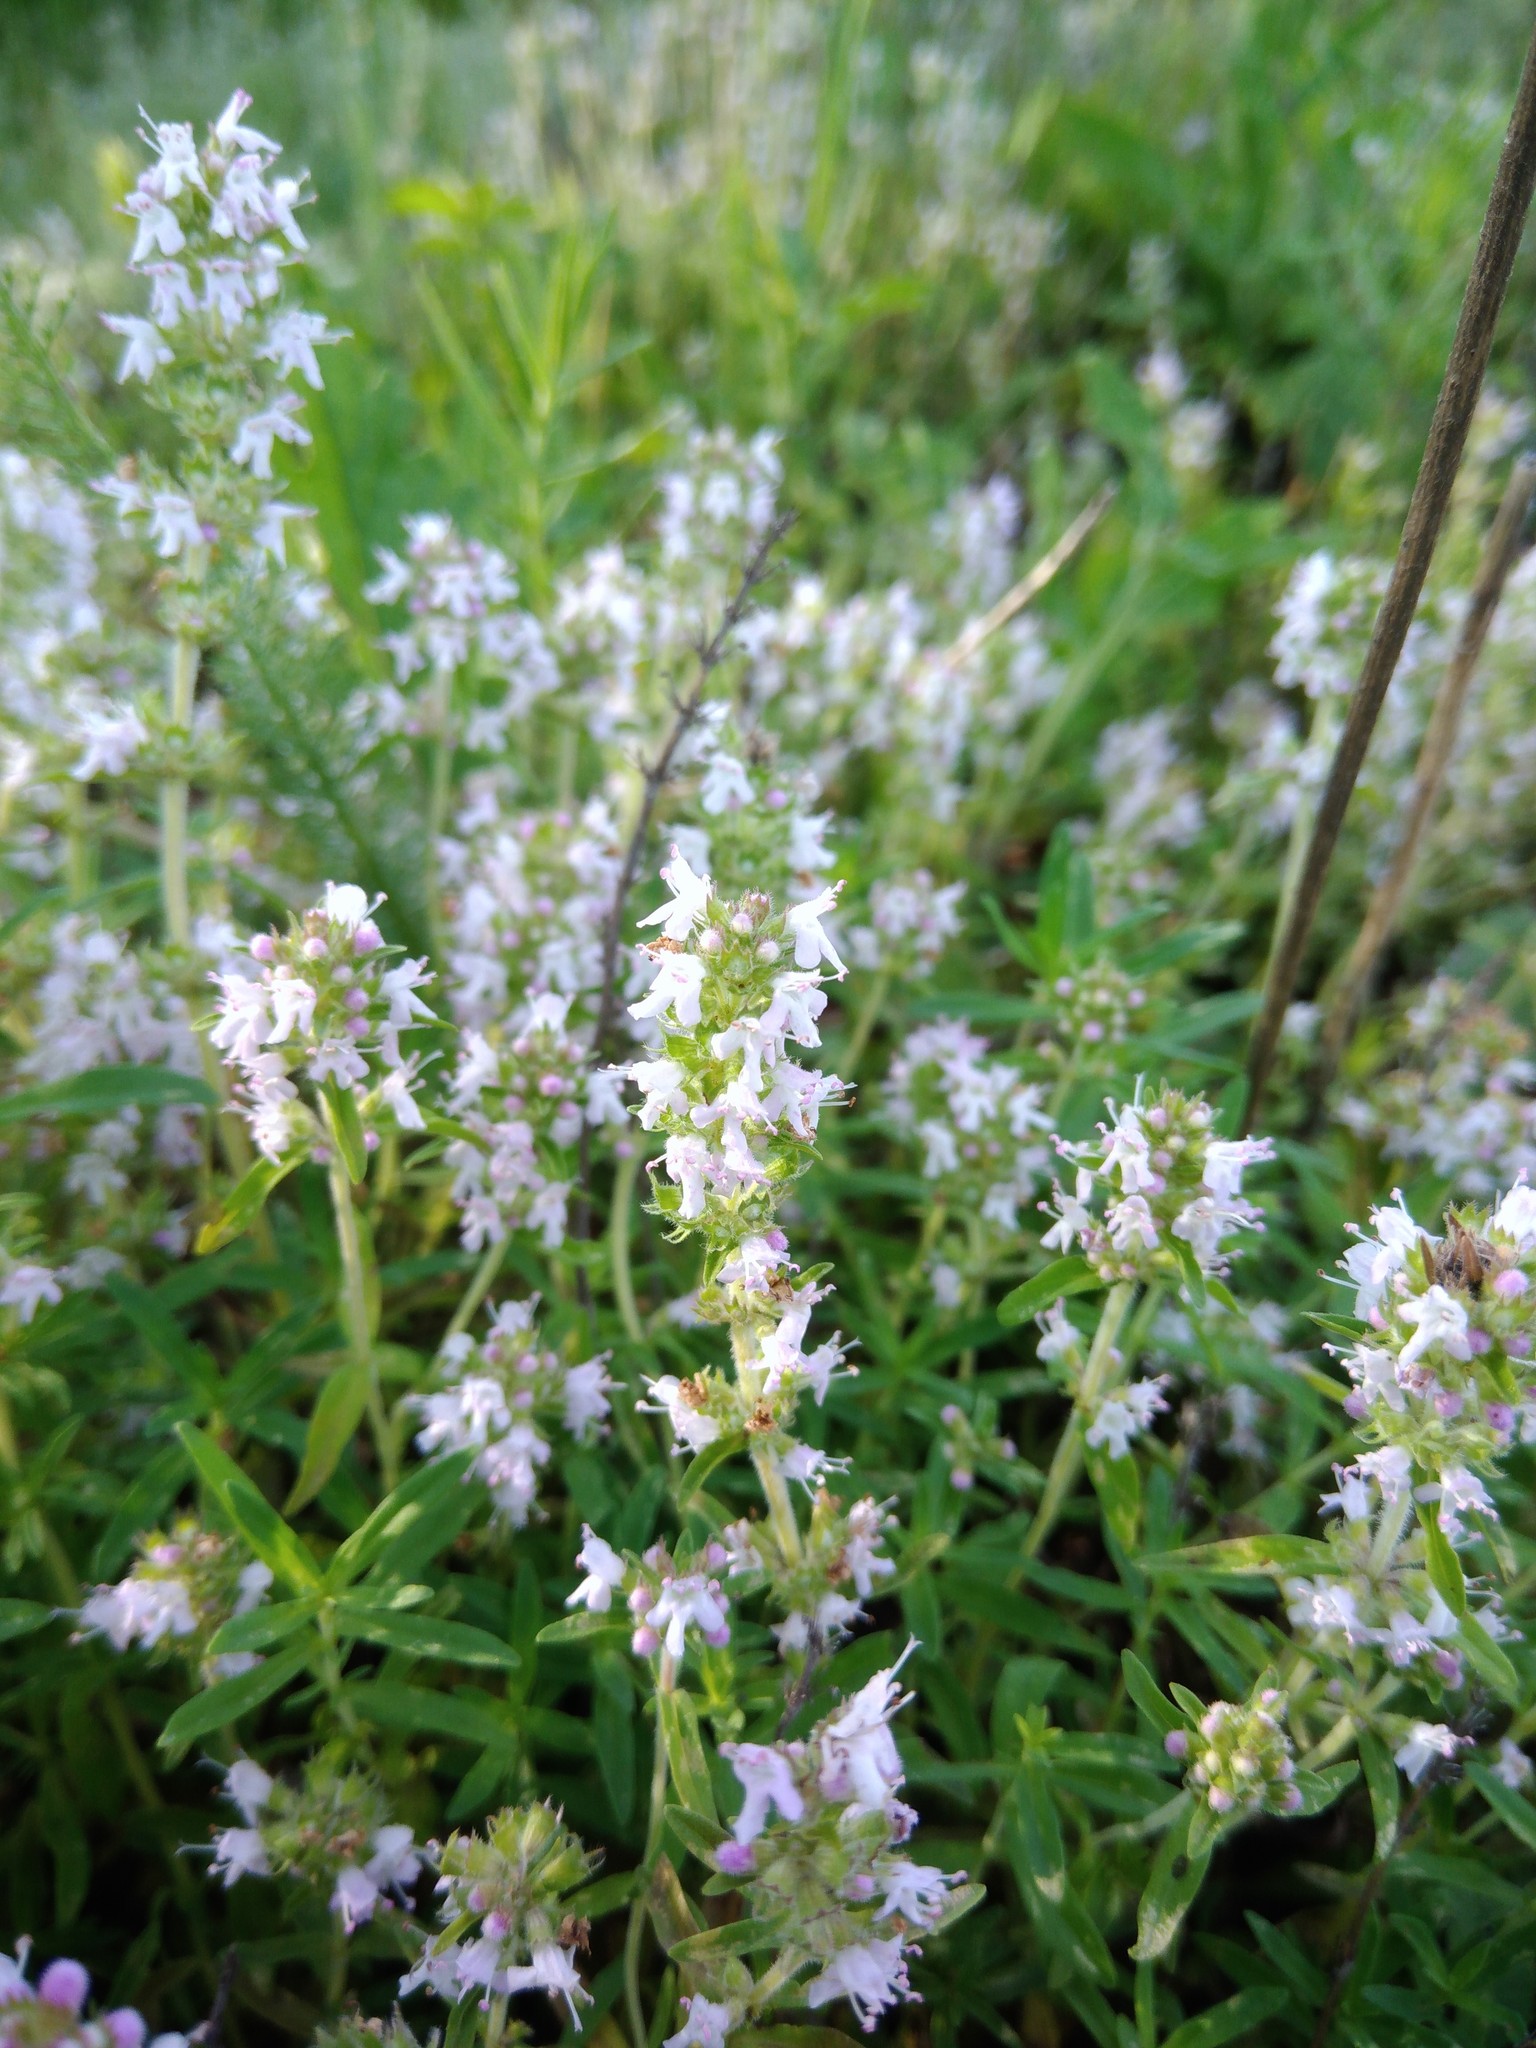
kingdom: Plantae
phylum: Tracheophyta
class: Magnoliopsida
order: Lamiales
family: Lamiaceae
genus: Thymus
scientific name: Thymus pannonicus
